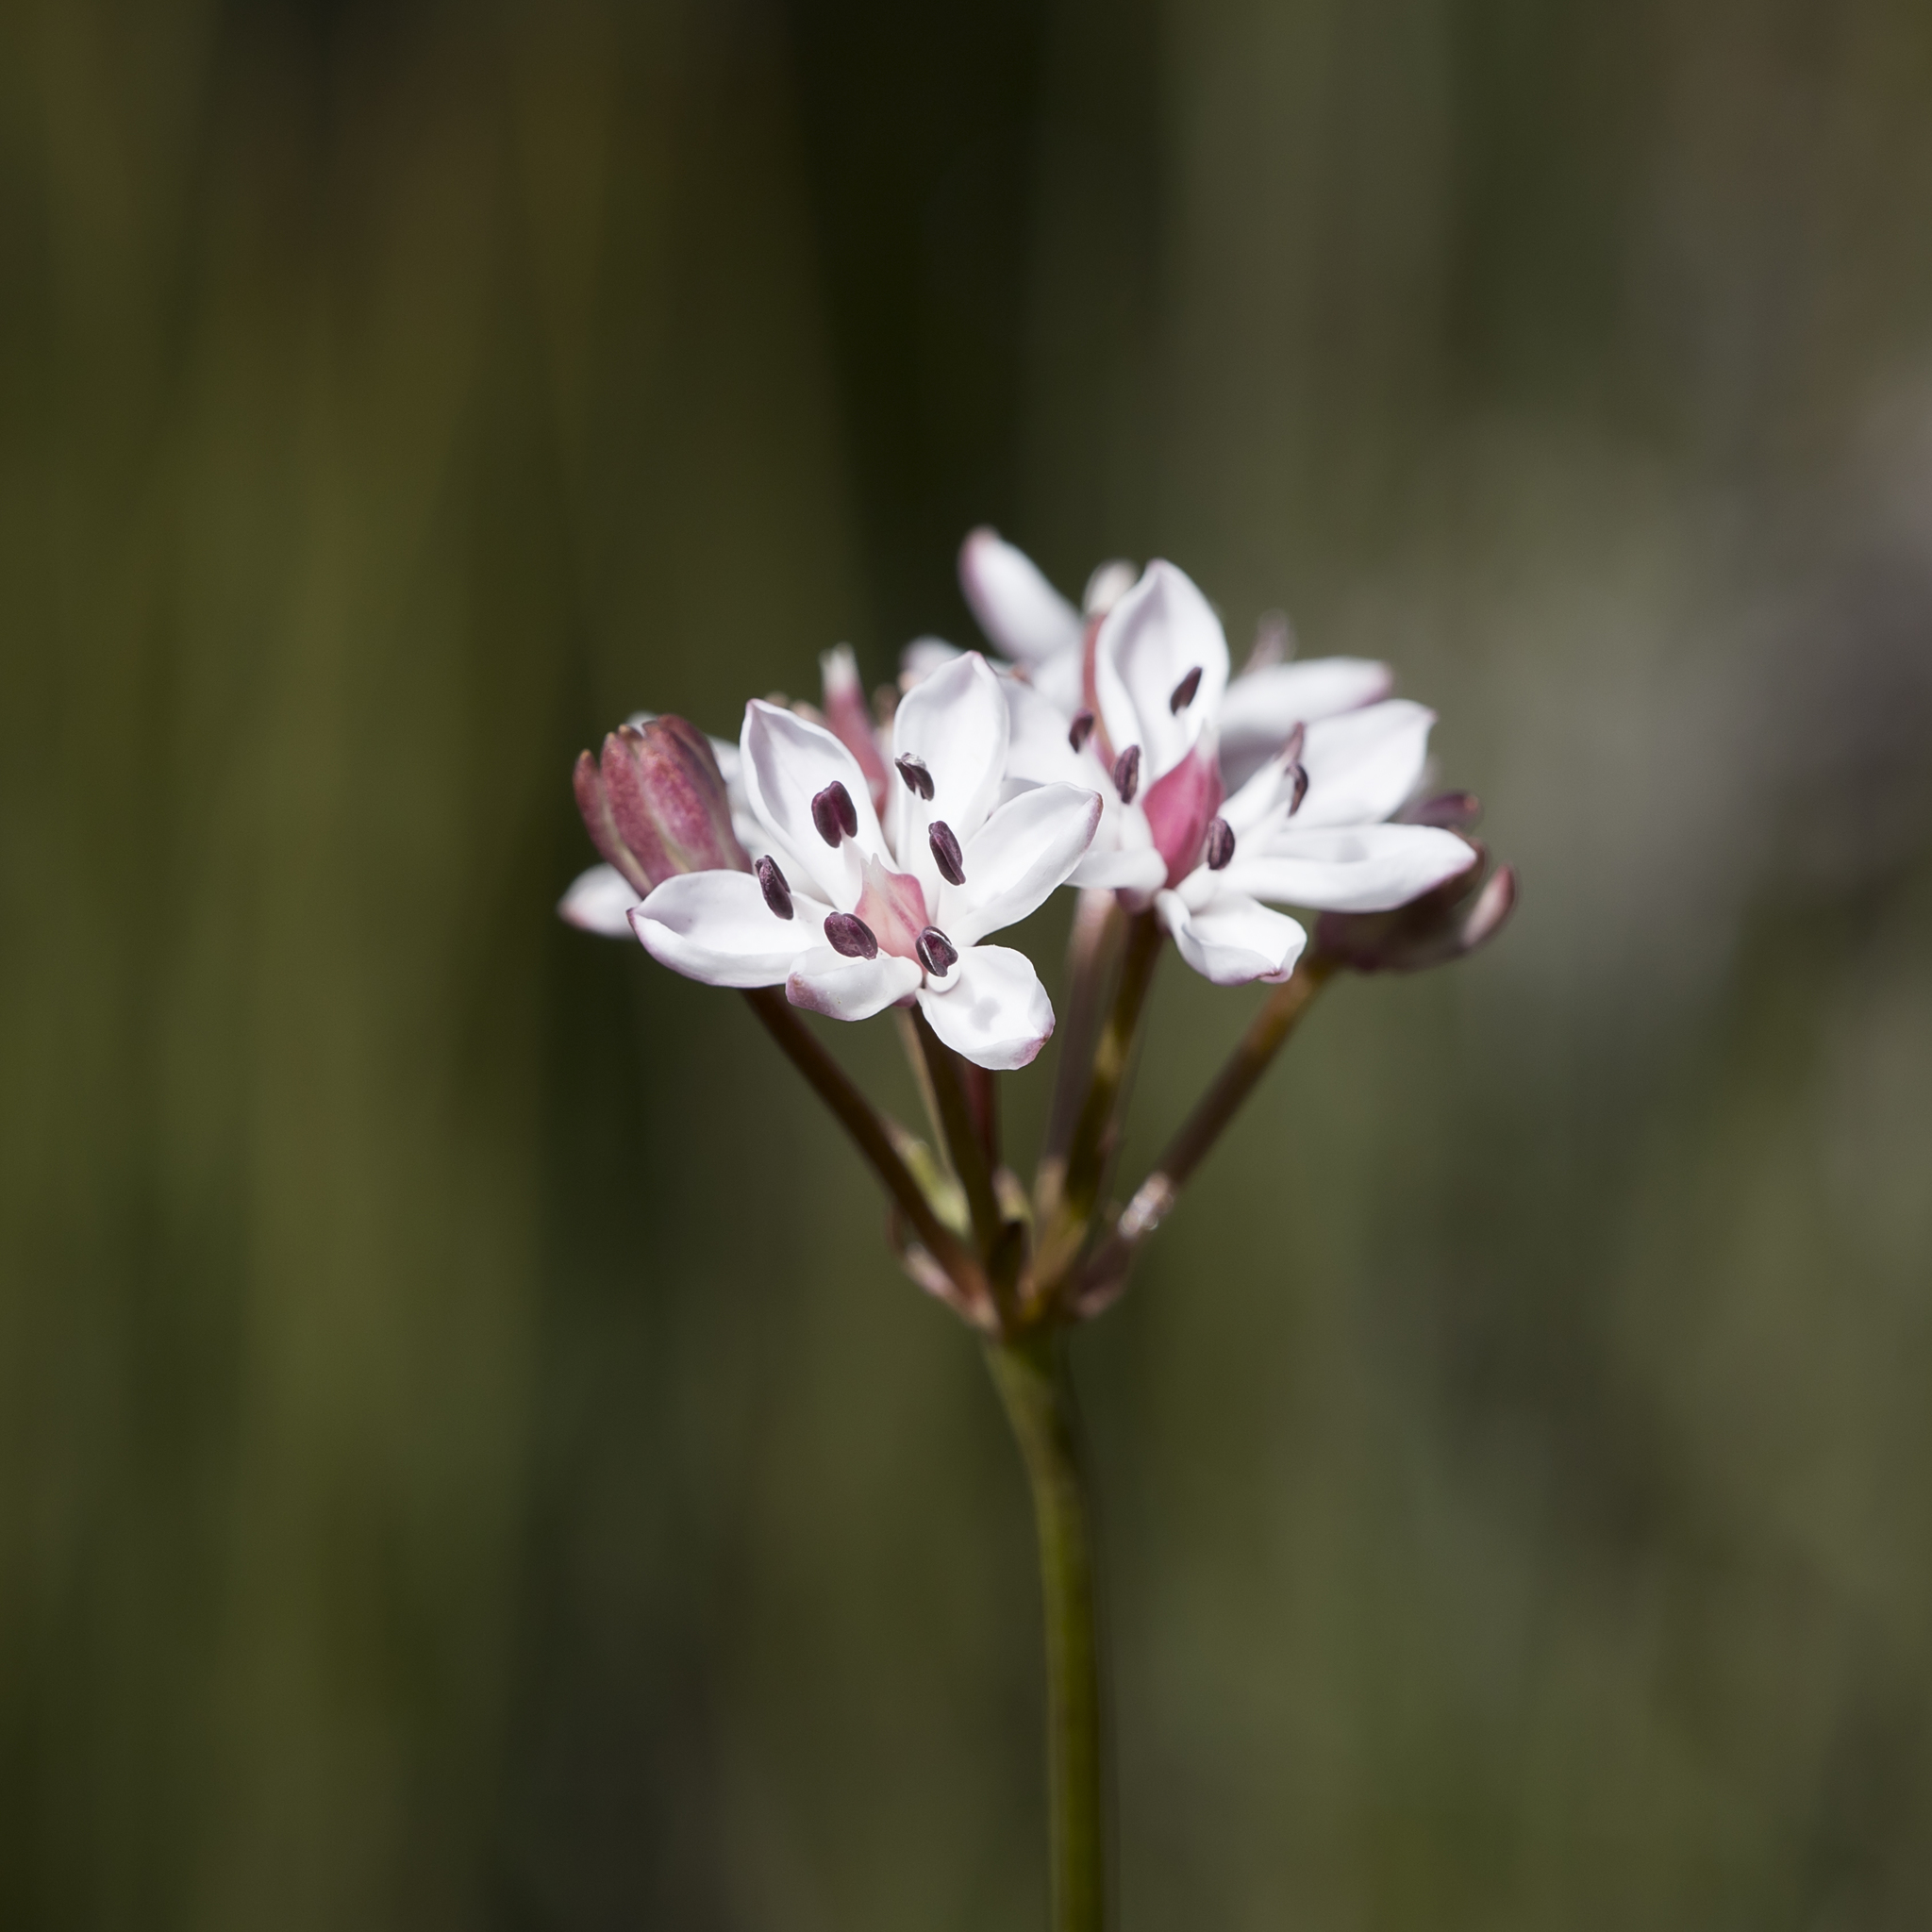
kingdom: Plantae
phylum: Tracheophyta
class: Liliopsida
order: Liliales
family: Colchicaceae
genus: Burchardia
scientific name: Burchardia umbellata
